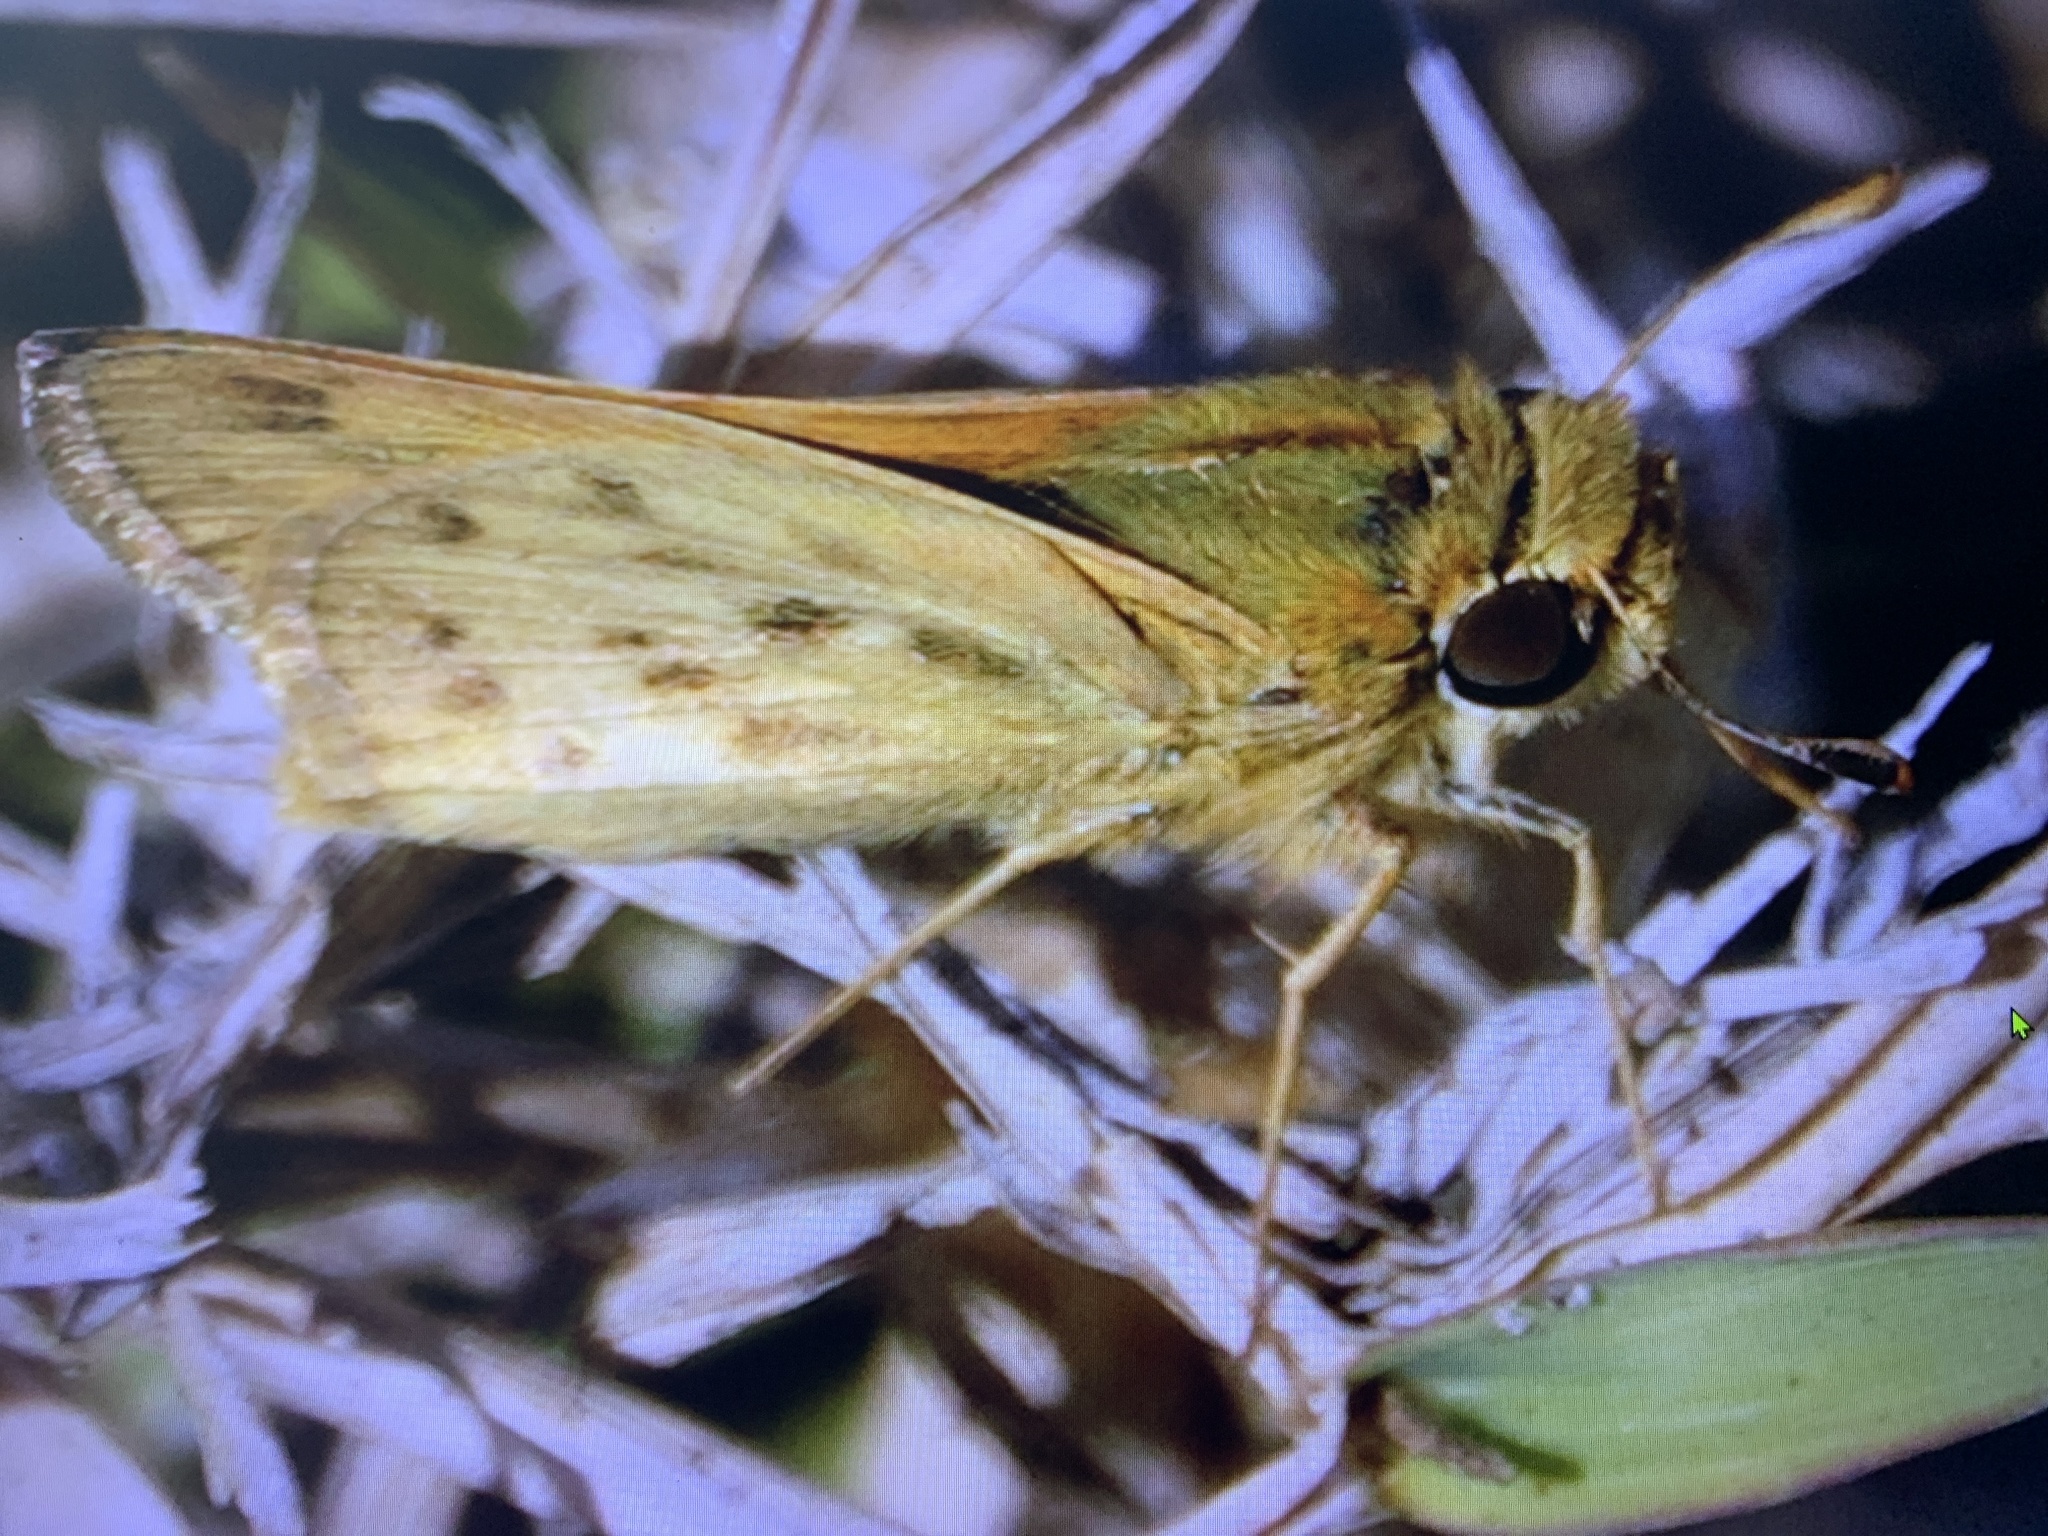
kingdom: Animalia
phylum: Arthropoda
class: Insecta
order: Lepidoptera
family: Hesperiidae
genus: Hylephila
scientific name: Hylephila phyleus
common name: Fiery skipper
